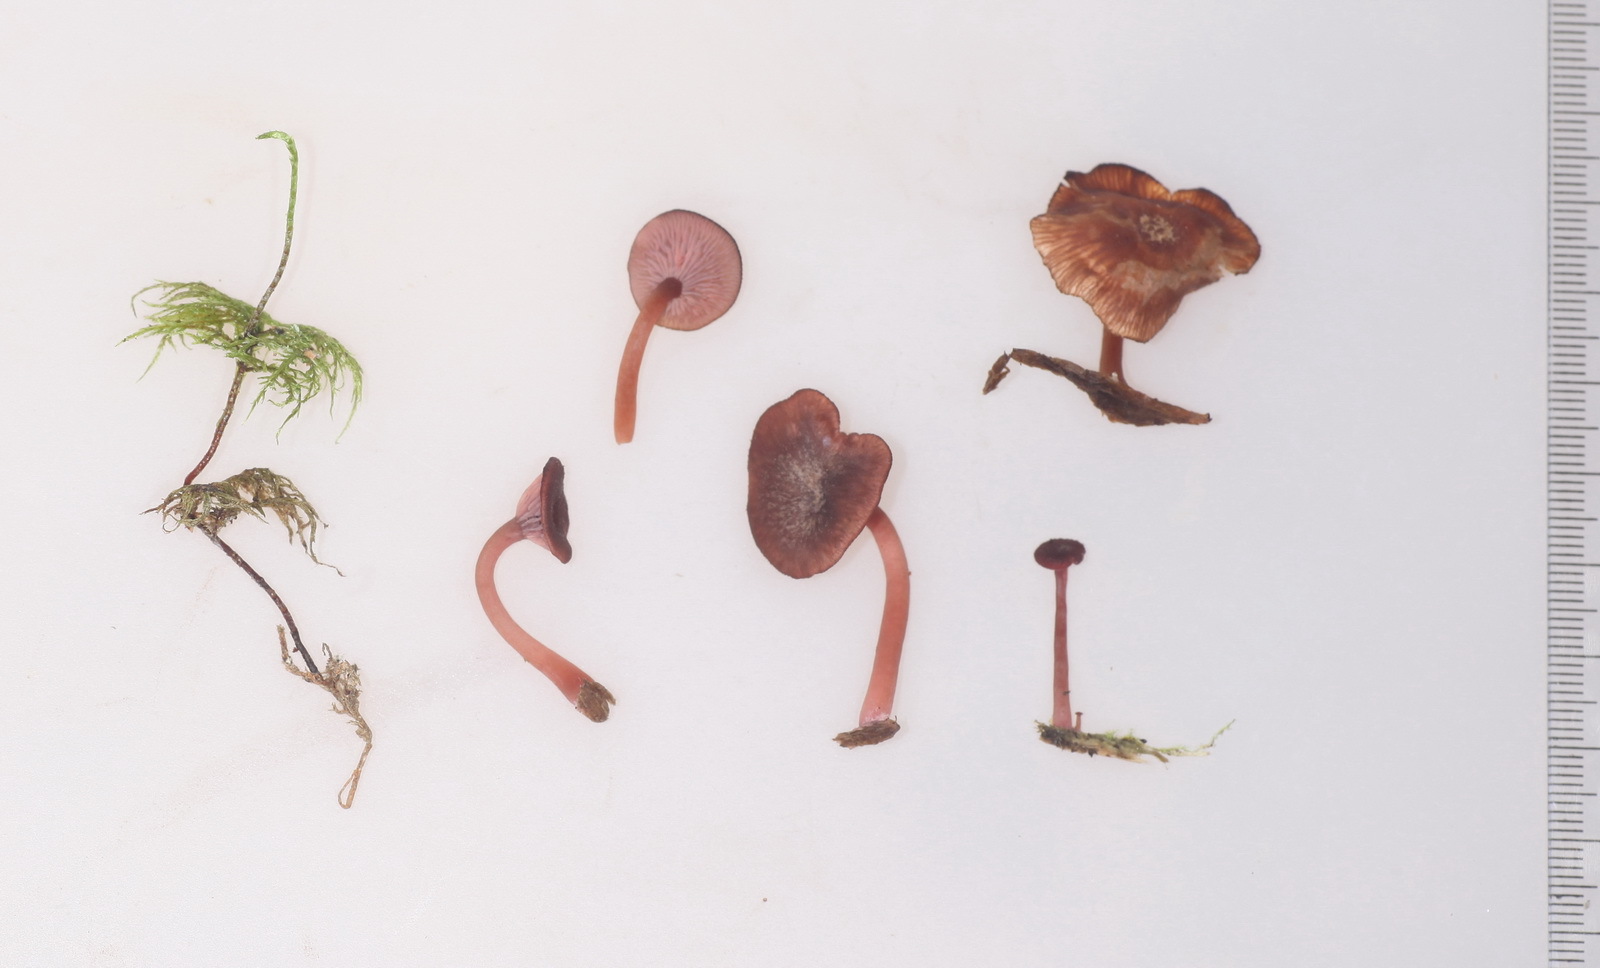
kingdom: Fungi
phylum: Basidiomycota
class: Agaricomycetes
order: Agaricales
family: Hygrophoraceae
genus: Arrhenia
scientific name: Arrhenia discorosea
